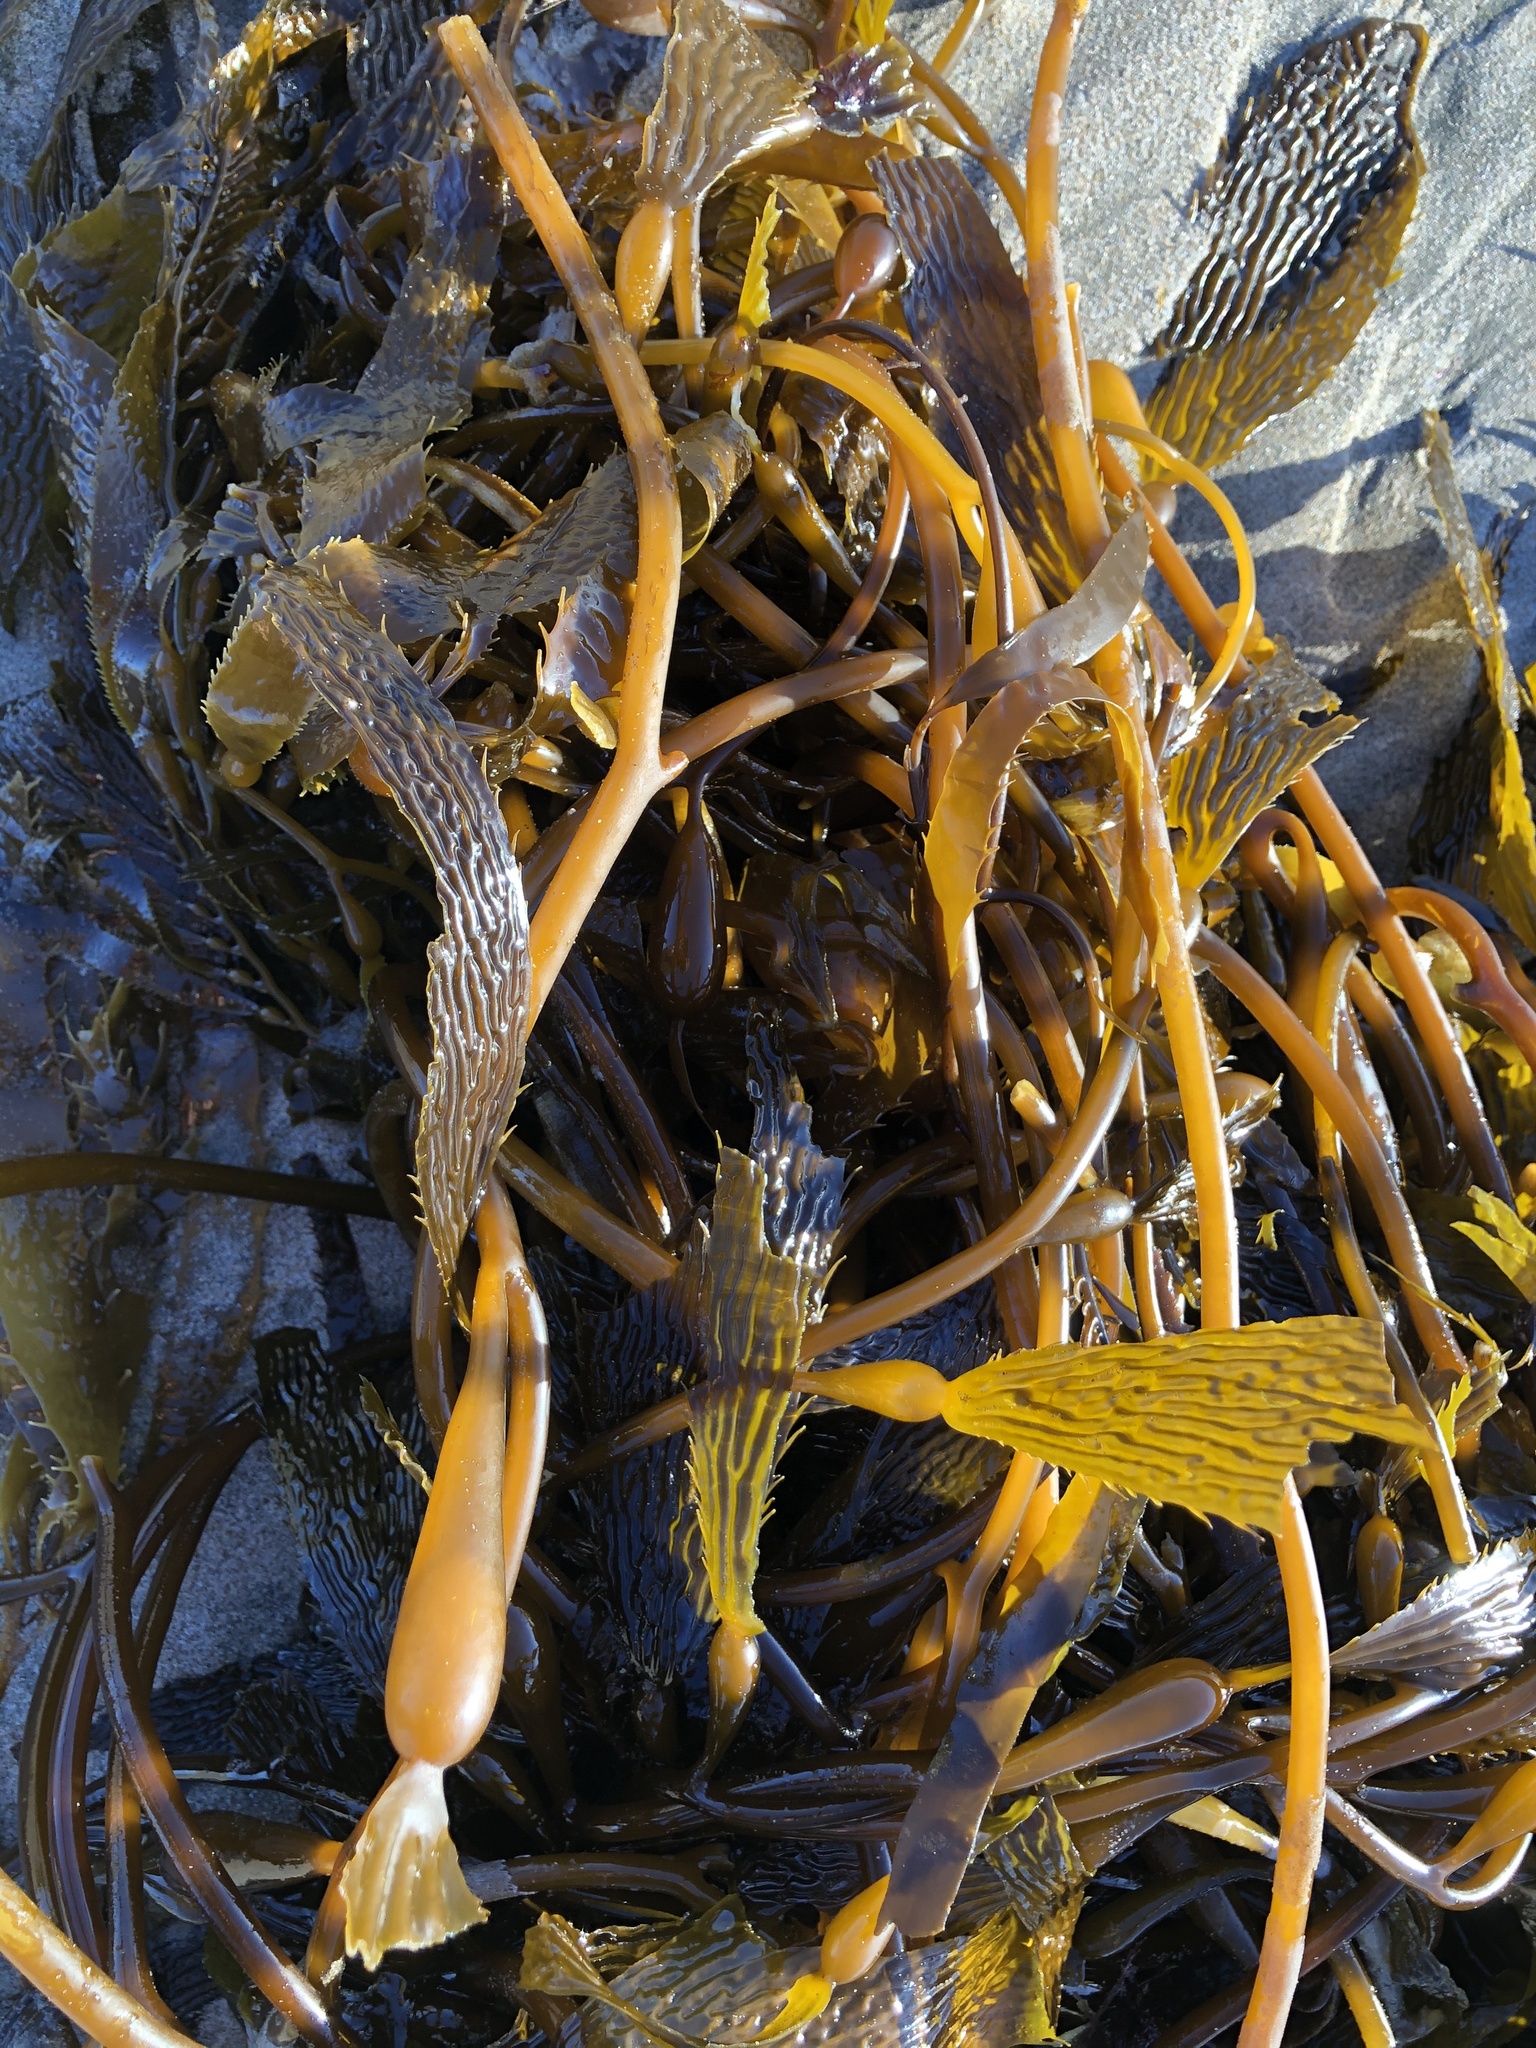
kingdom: Chromista
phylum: Ochrophyta
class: Phaeophyceae
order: Laminariales
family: Laminariaceae
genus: Macrocystis
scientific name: Macrocystis pyrifera
